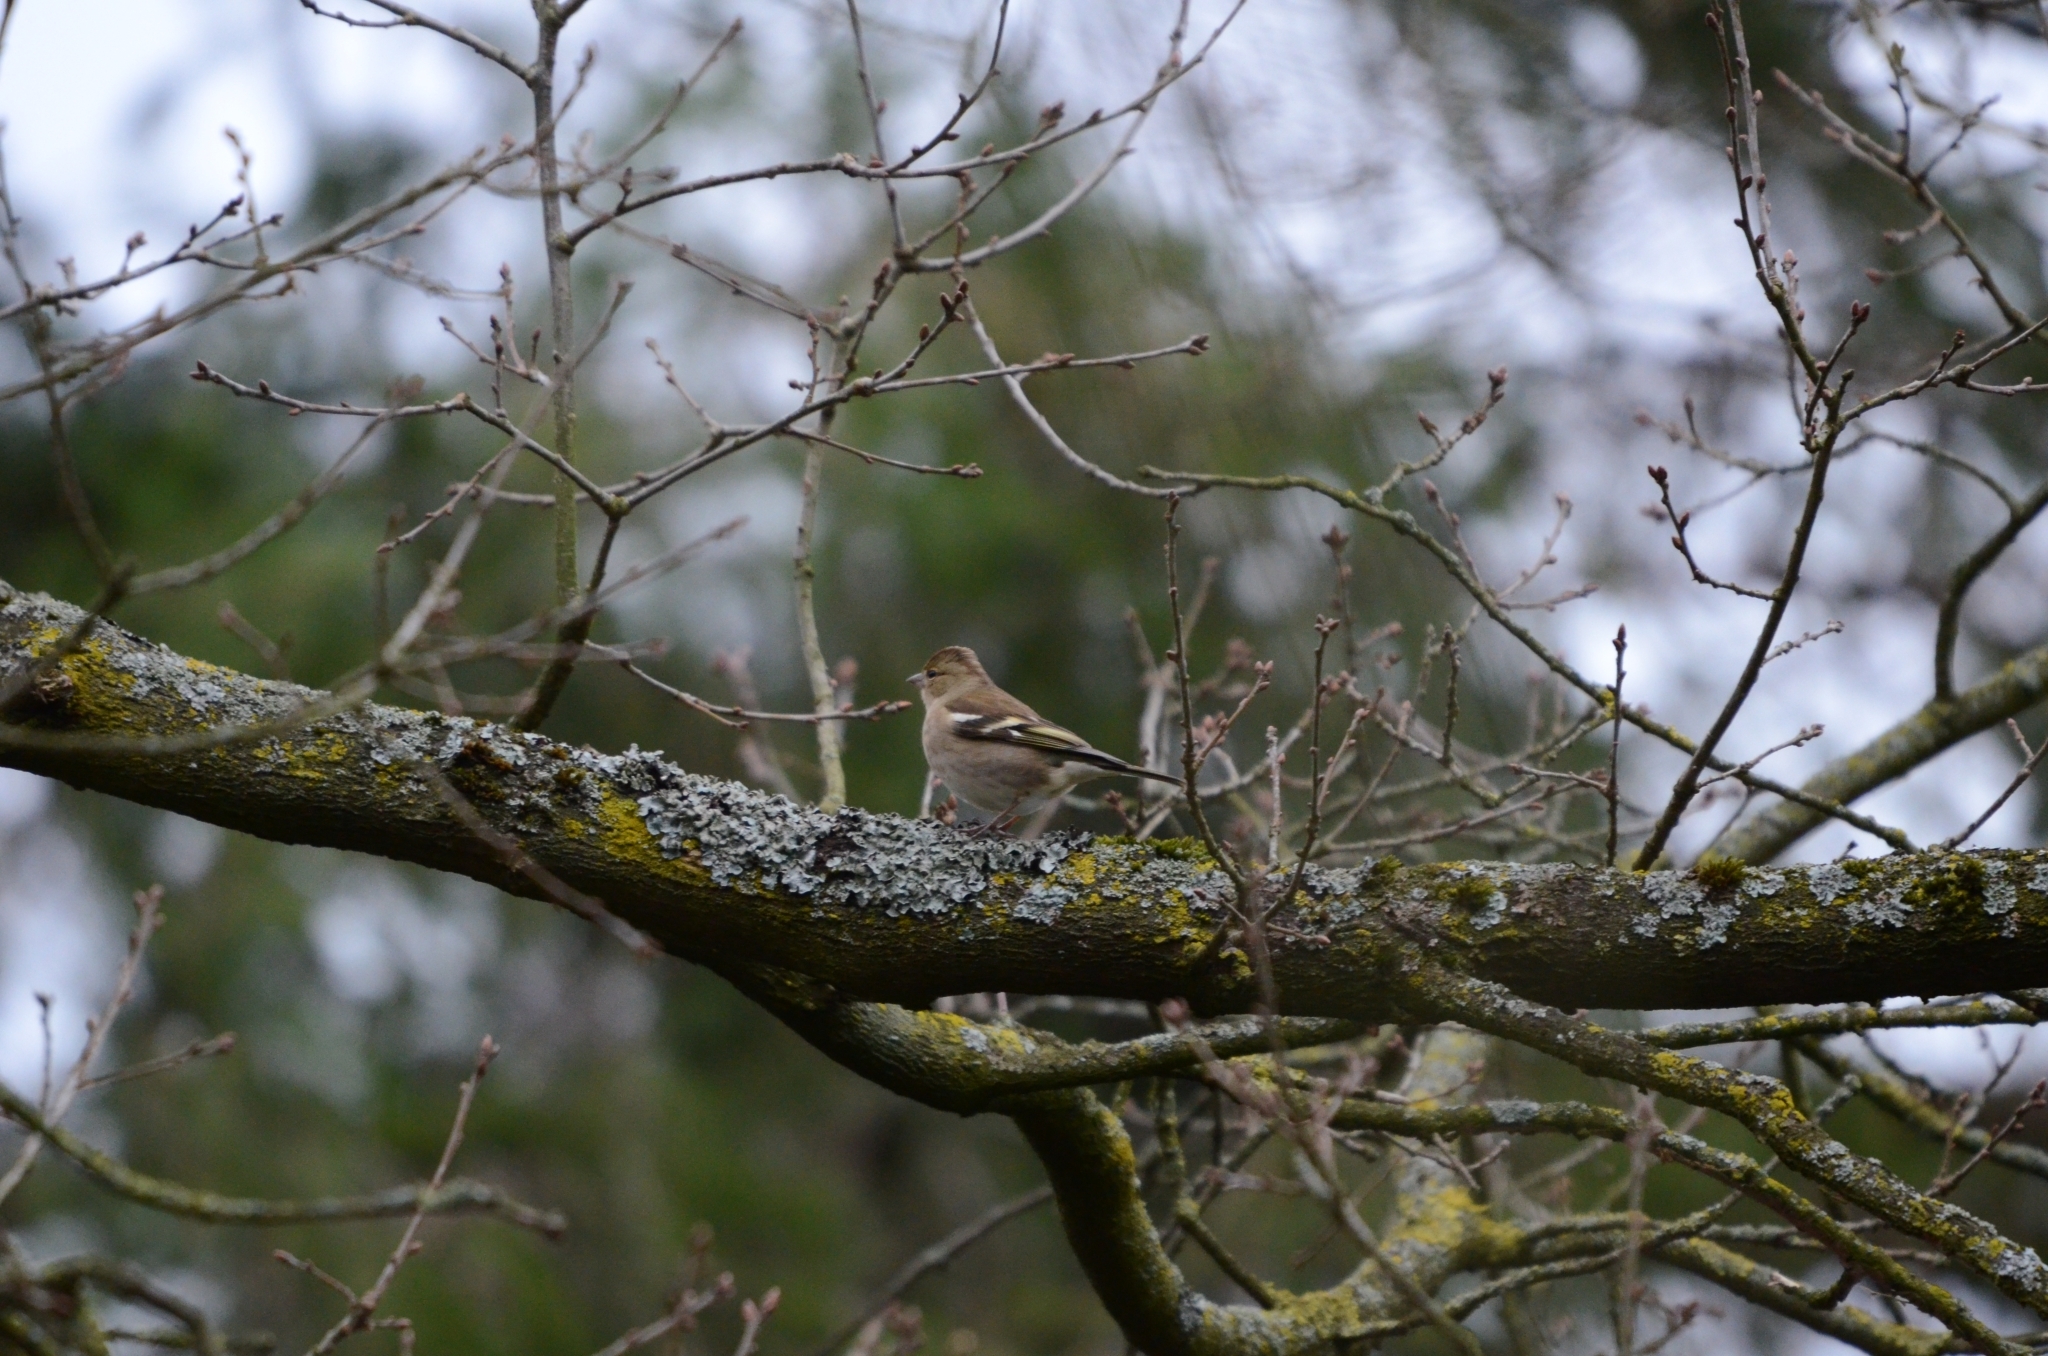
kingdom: Animalia
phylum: Chordata
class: Aves
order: Passeriformes
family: Fringillidae
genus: Fringilla
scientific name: Fringilla coelebs
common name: Common chaffinch
